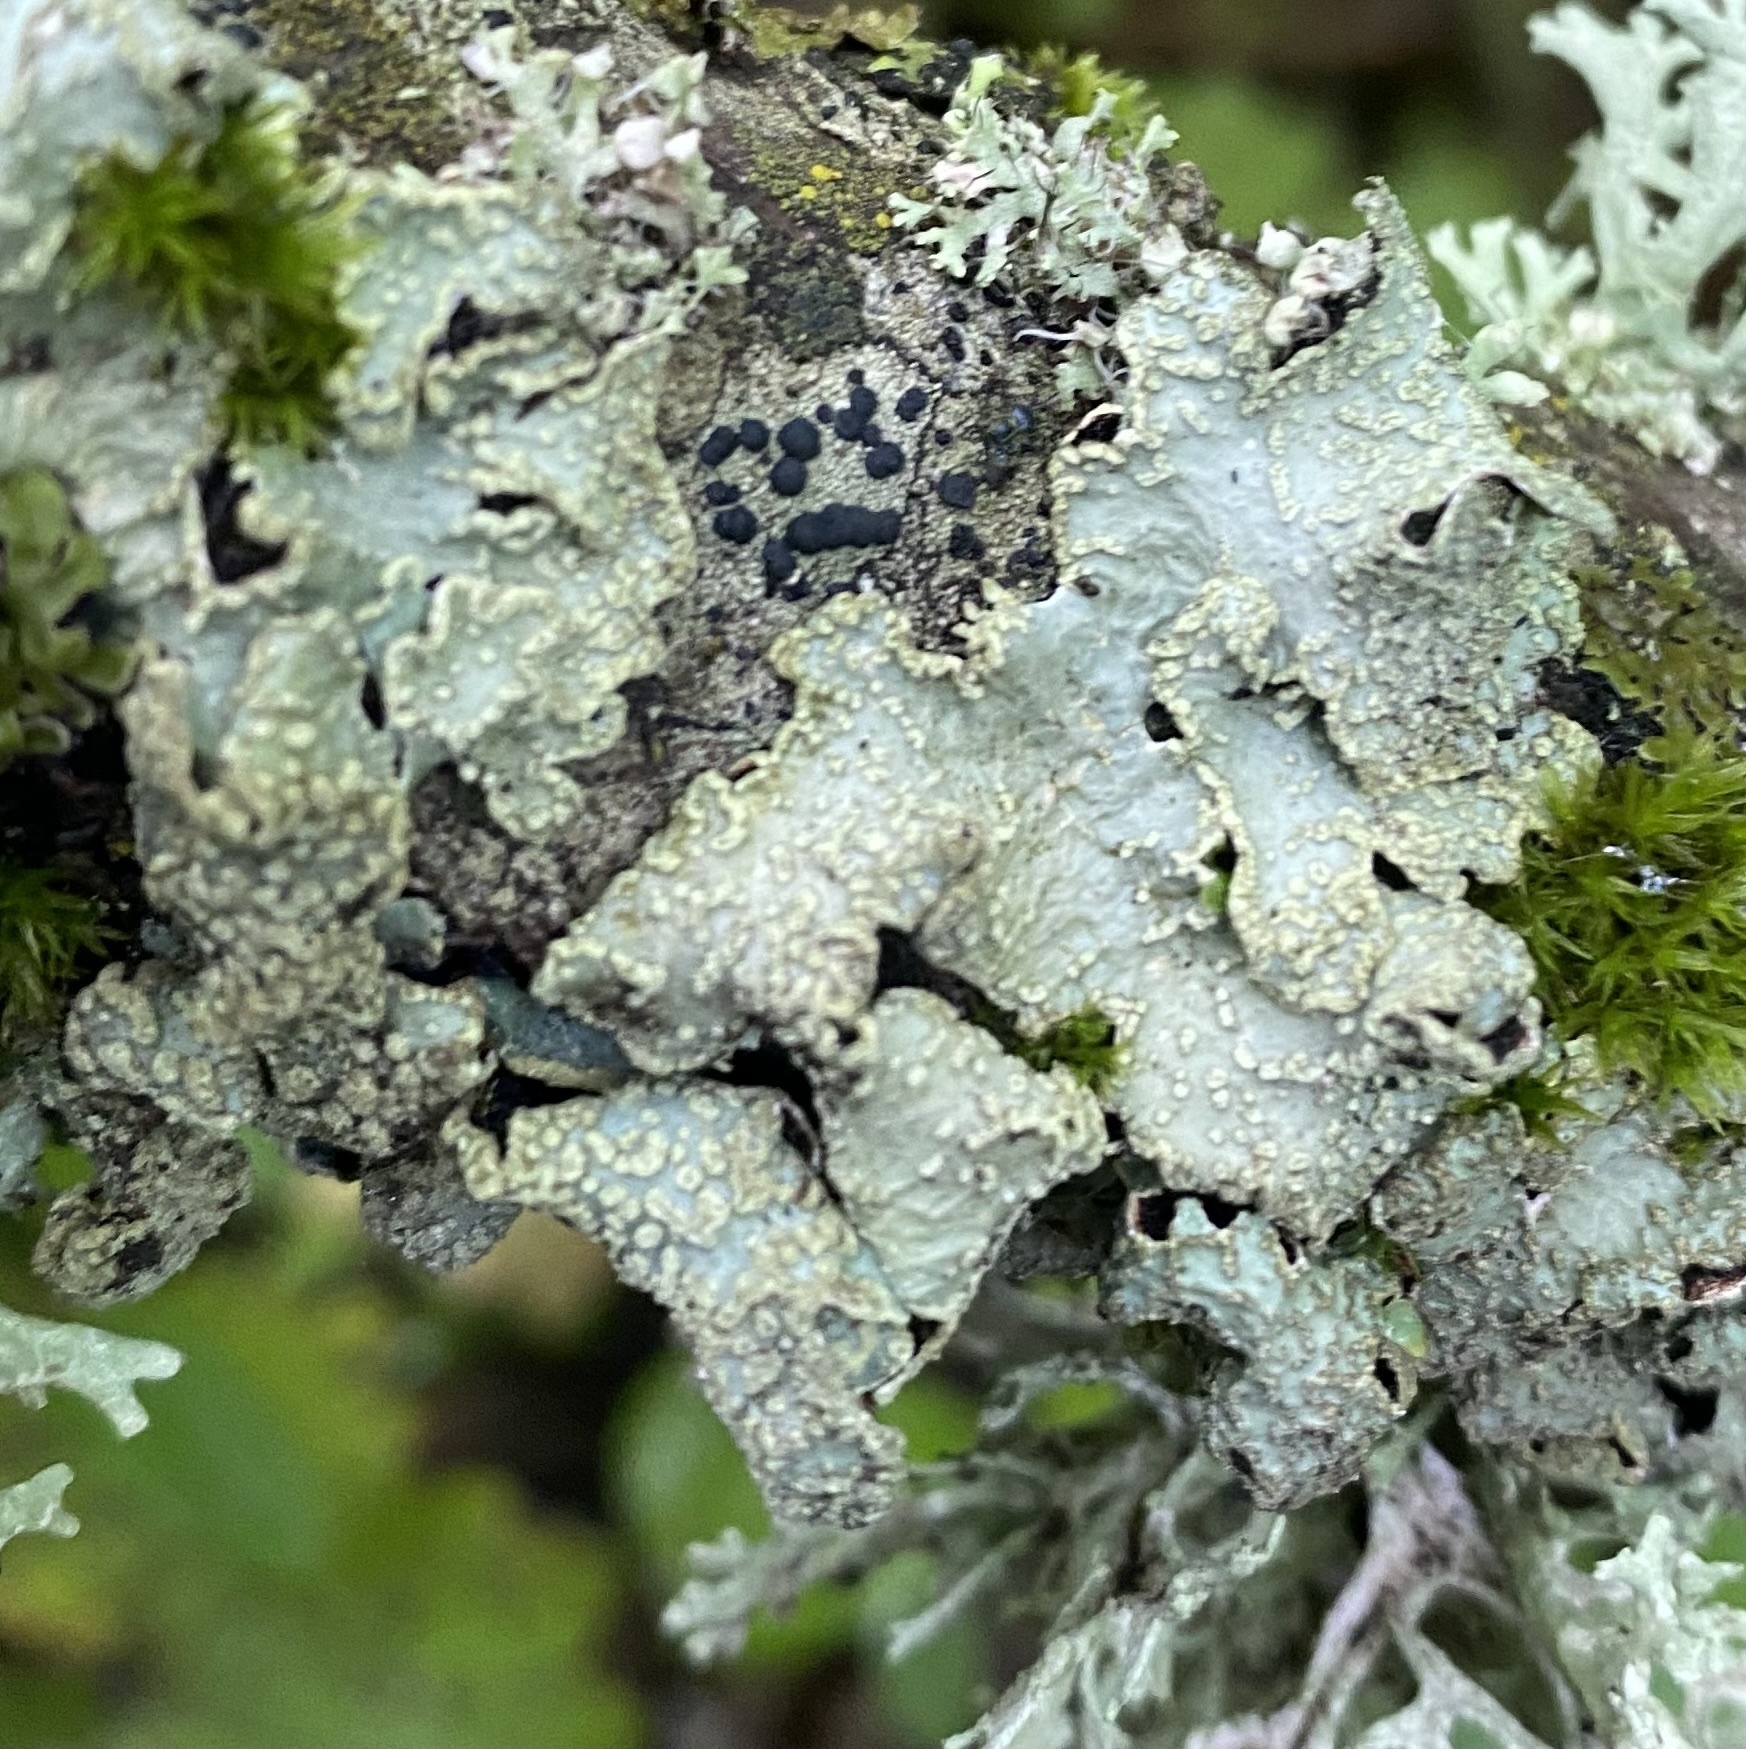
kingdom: Fungi
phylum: Ascomycota
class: Lecanoromycetes
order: Lecanorales
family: Parmeliaceae
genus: Parmelia
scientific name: Parmelia sulcata
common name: Netted shield lichen
